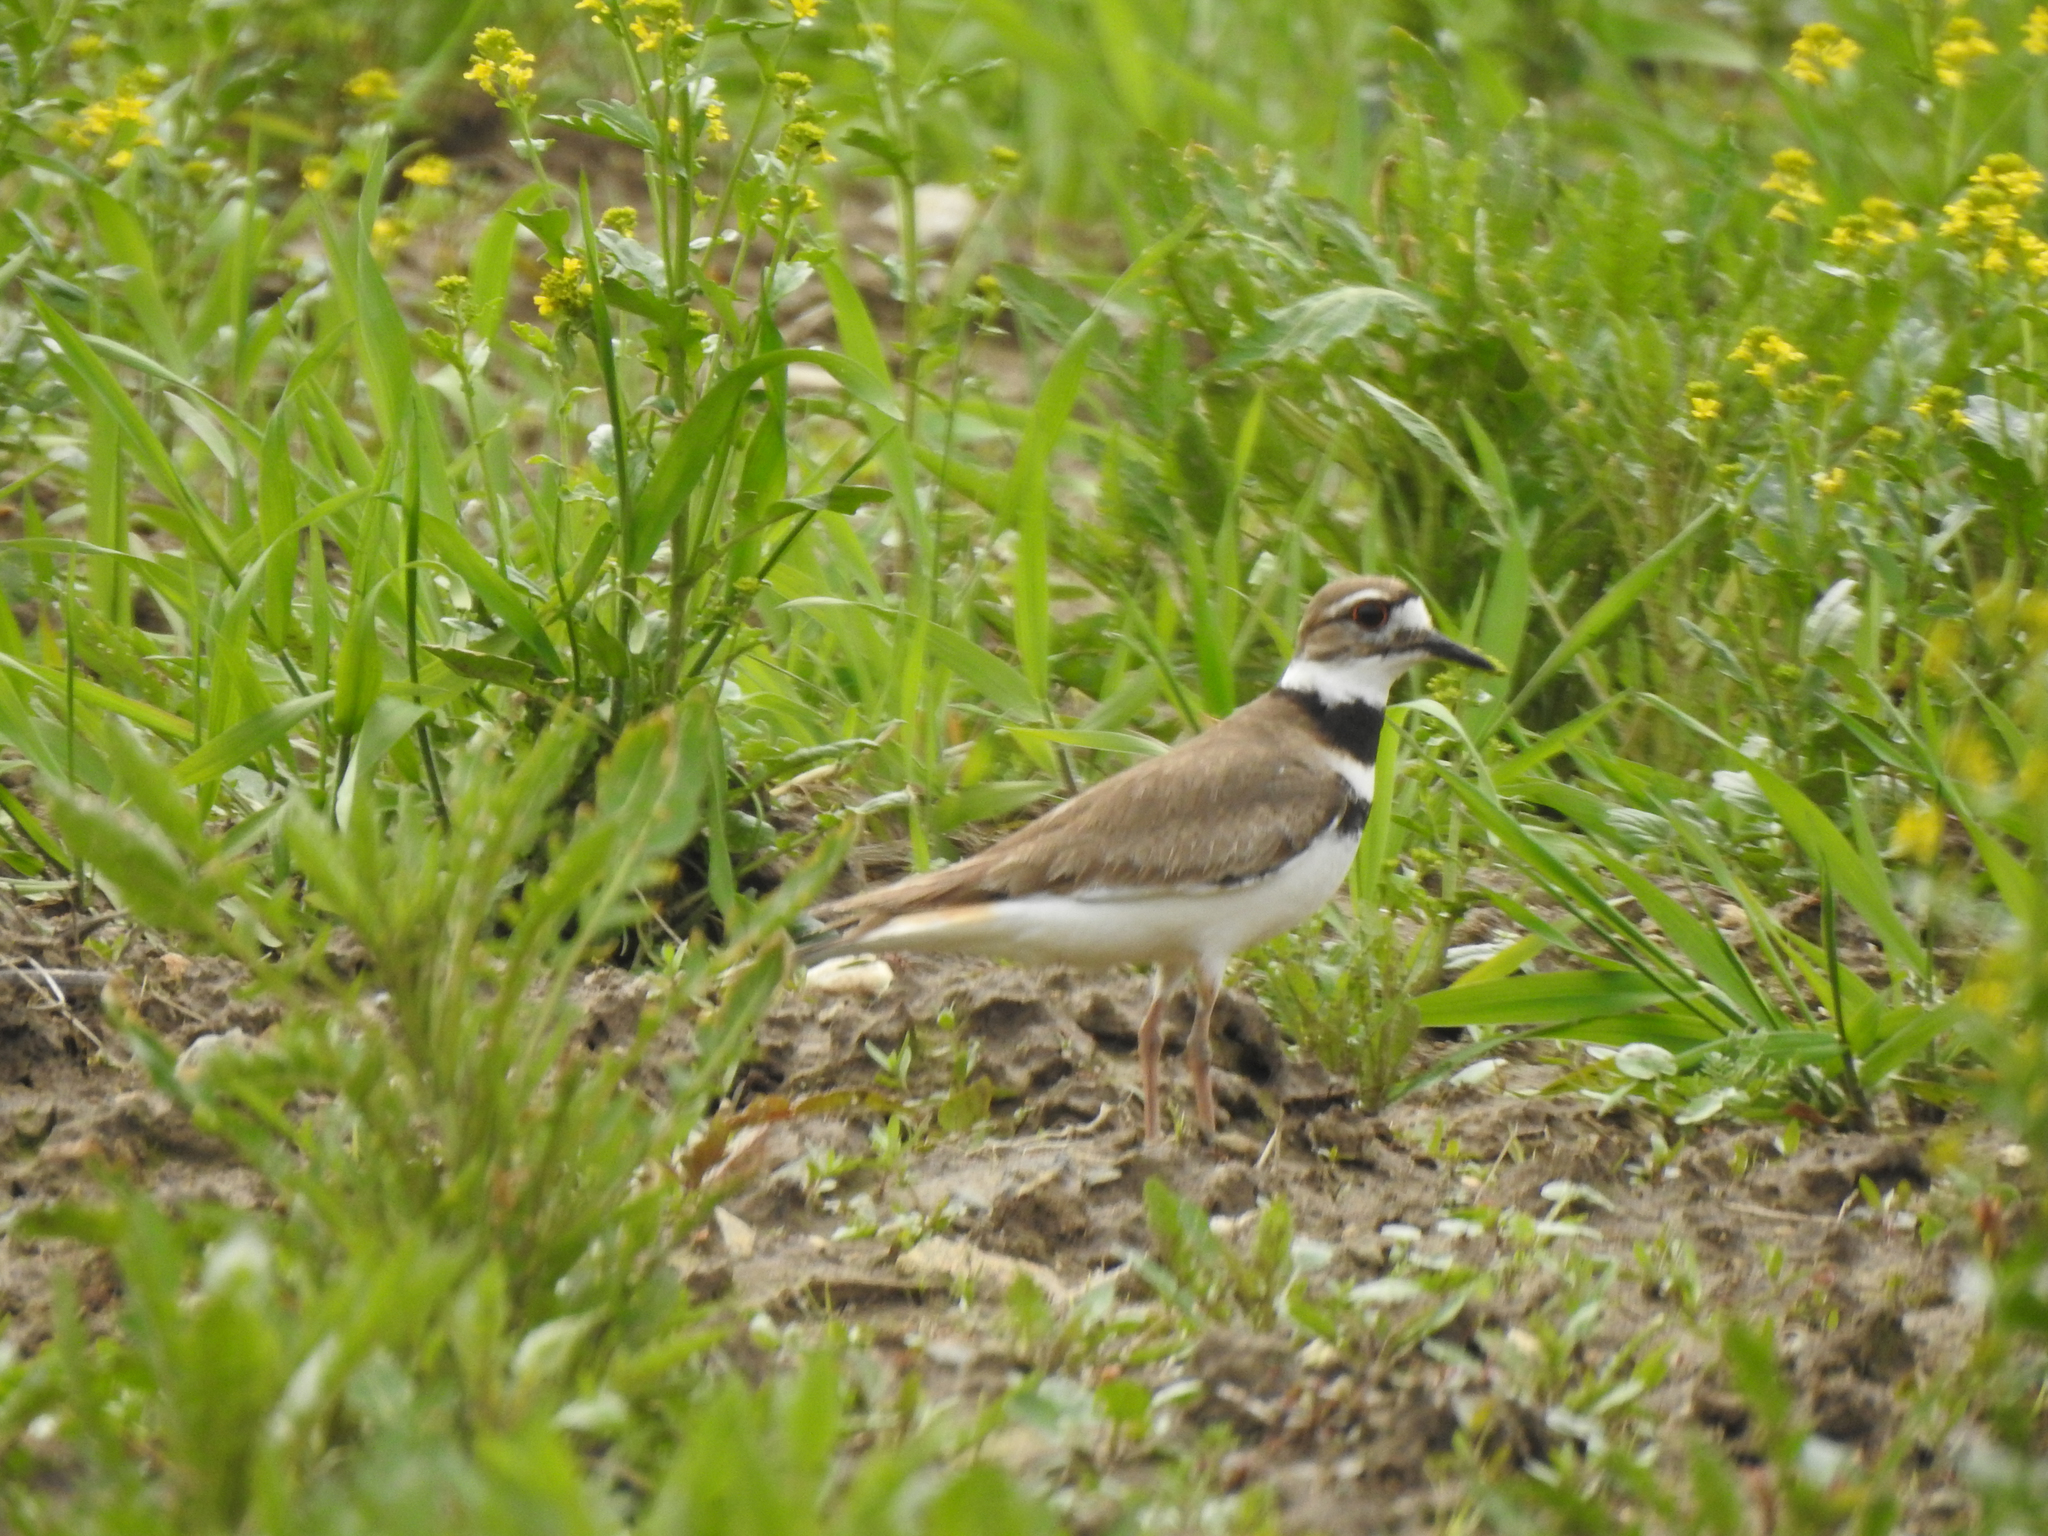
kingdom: Animalia
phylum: Chordata
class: Aves
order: Charadriiformes
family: Charadriidae
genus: Charadrius
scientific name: Charadrius vociferus
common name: Killdeer
